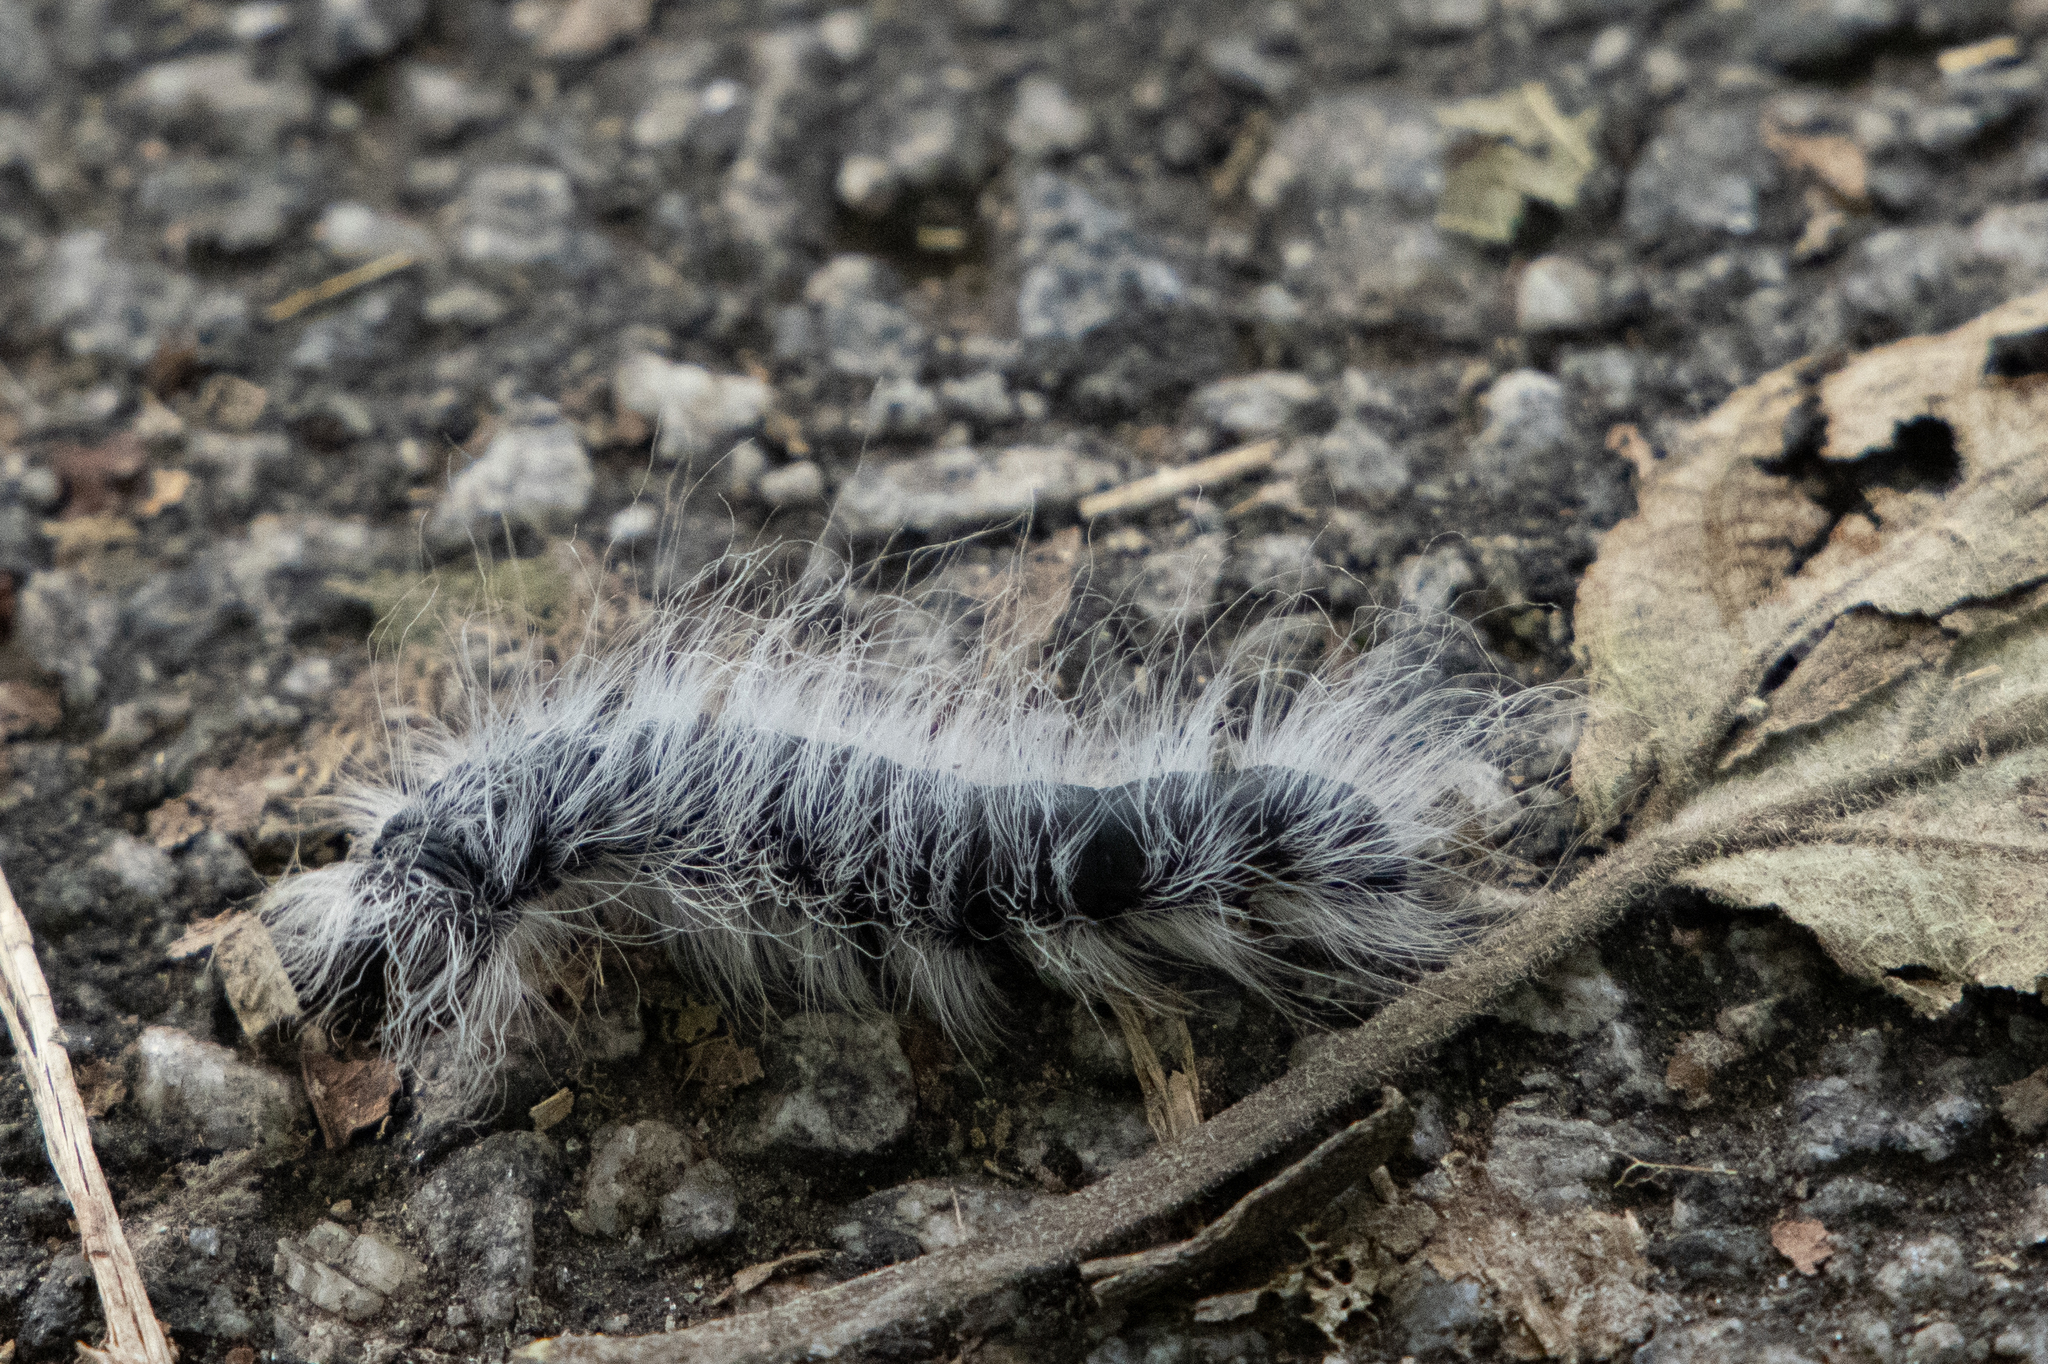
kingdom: Animalia
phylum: Arthropoda
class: Insecta
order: Lepidoptera
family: Notodontidae
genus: Datana
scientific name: Datana integerrima
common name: Walnut caterpillar
